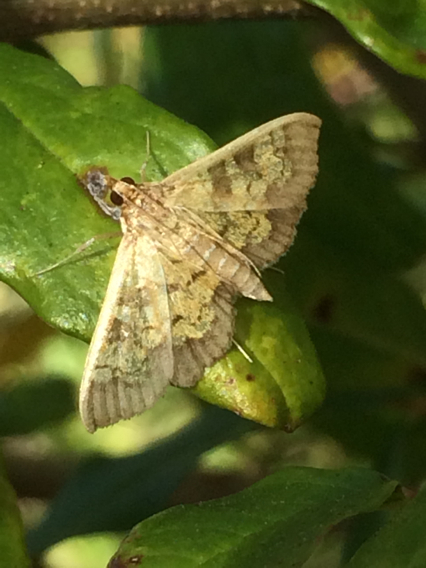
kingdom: Animalia
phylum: Arthropoda
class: Insecta
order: Lepidoptera
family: Crambidae
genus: Epipagis
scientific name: Epipagis adipaloides
